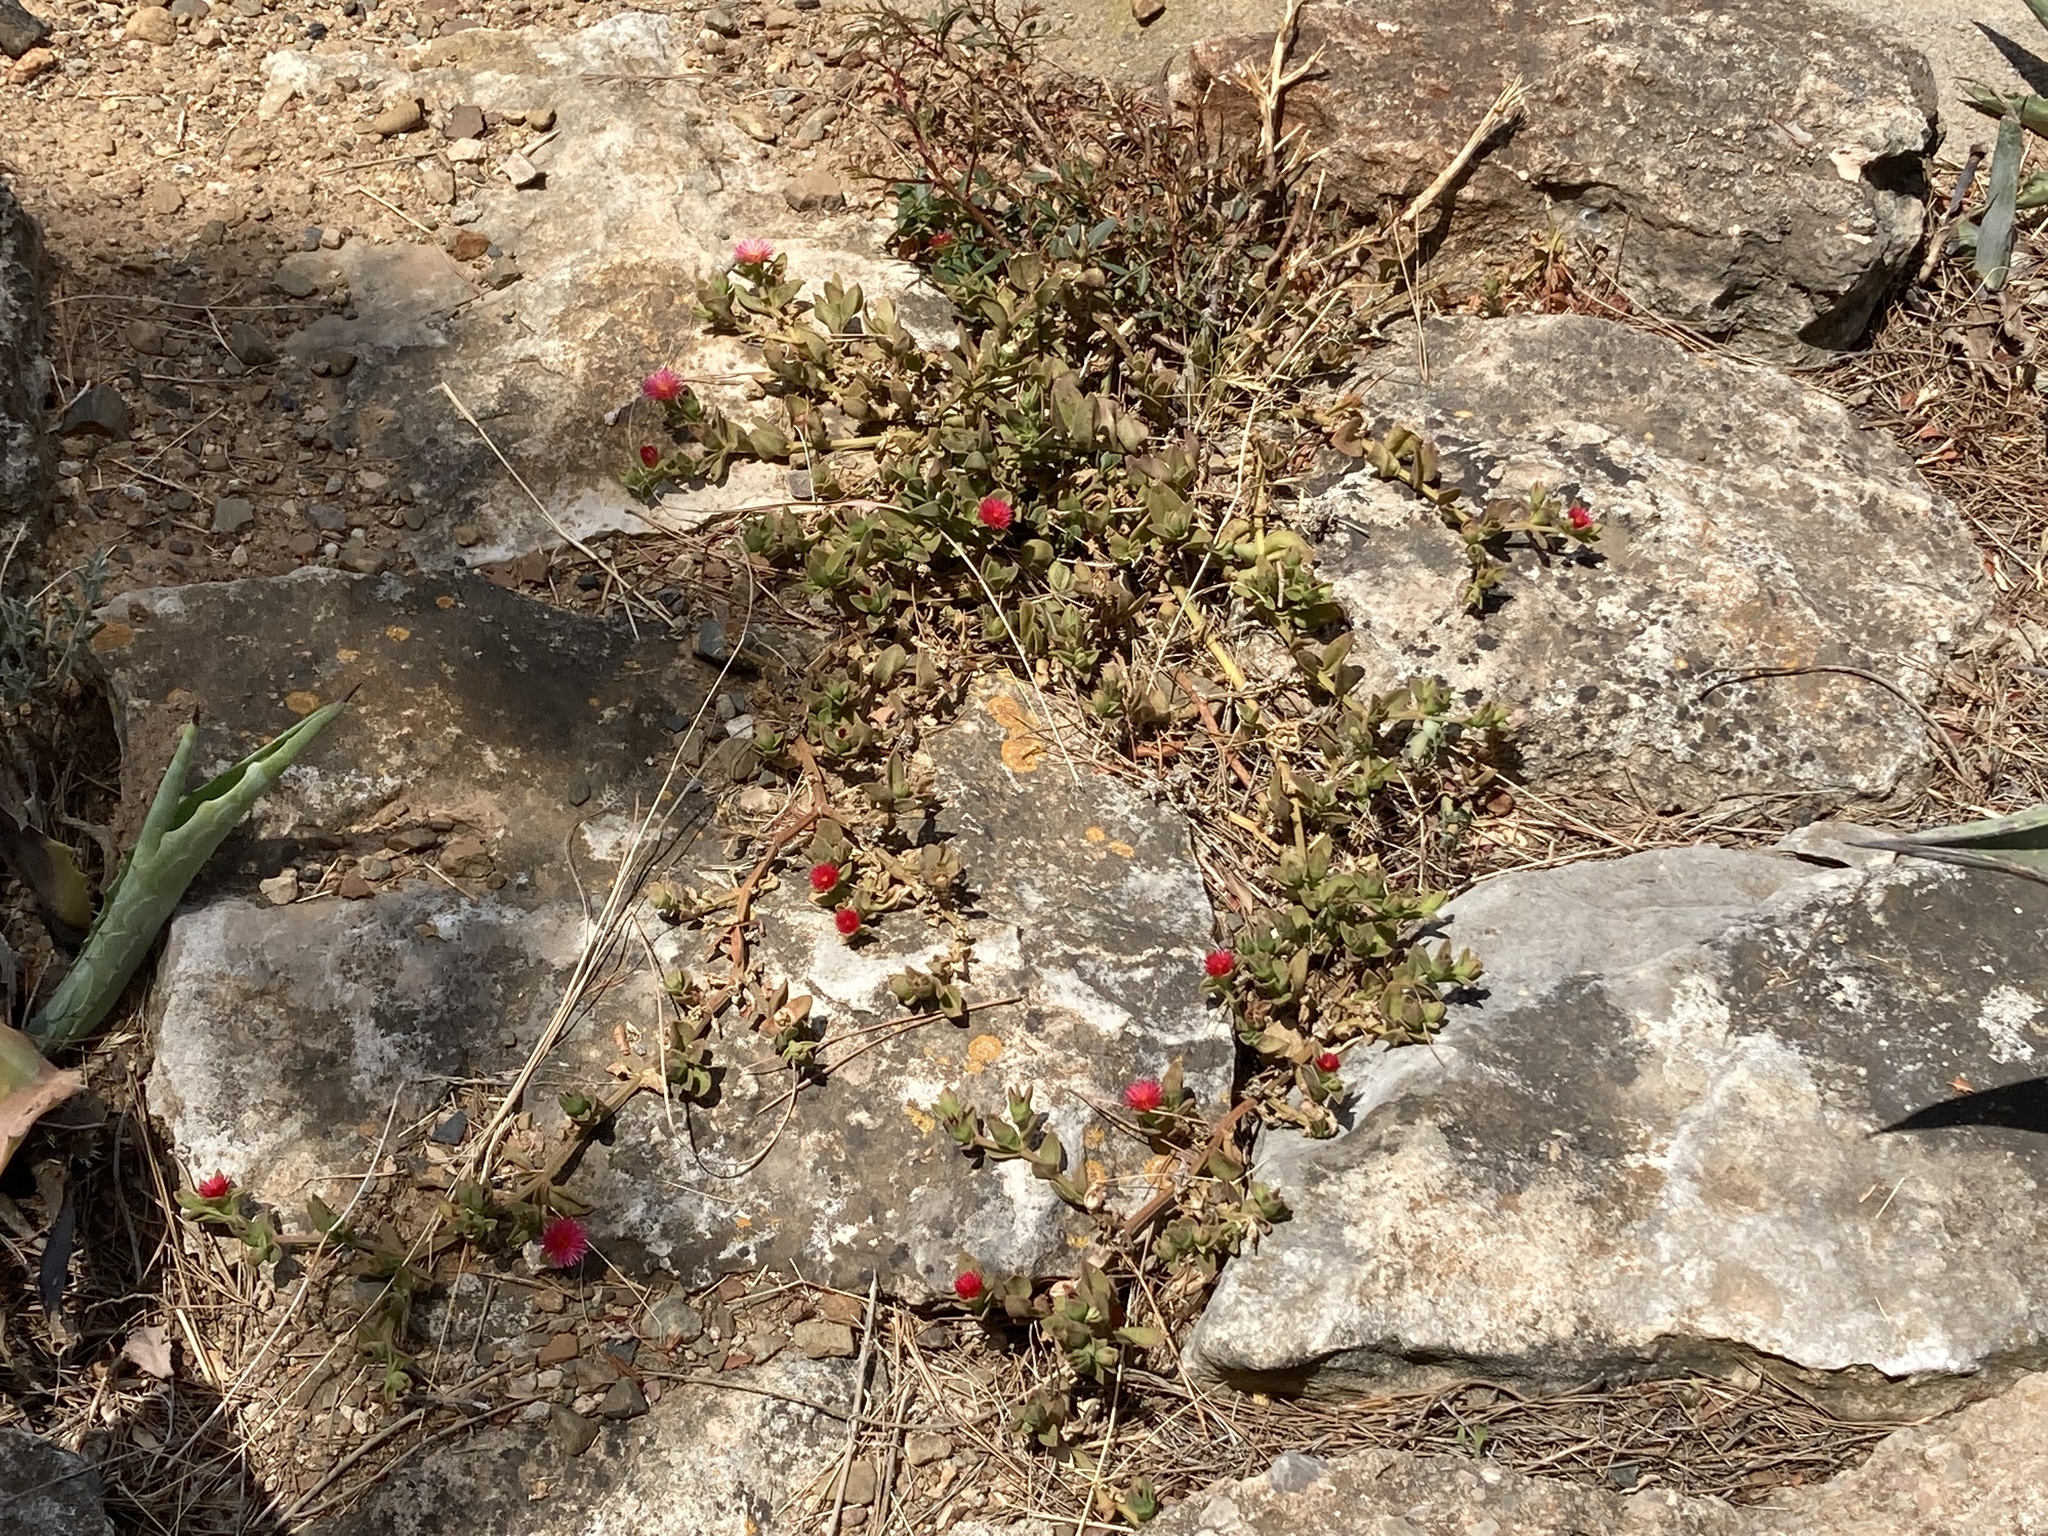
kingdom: Plantae
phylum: Tracheophyta
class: Magnoliopsida
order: Caryophyllales
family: Aizoaceae
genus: Mesembryanthemum
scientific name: Mesembryanthemum cordifolium
